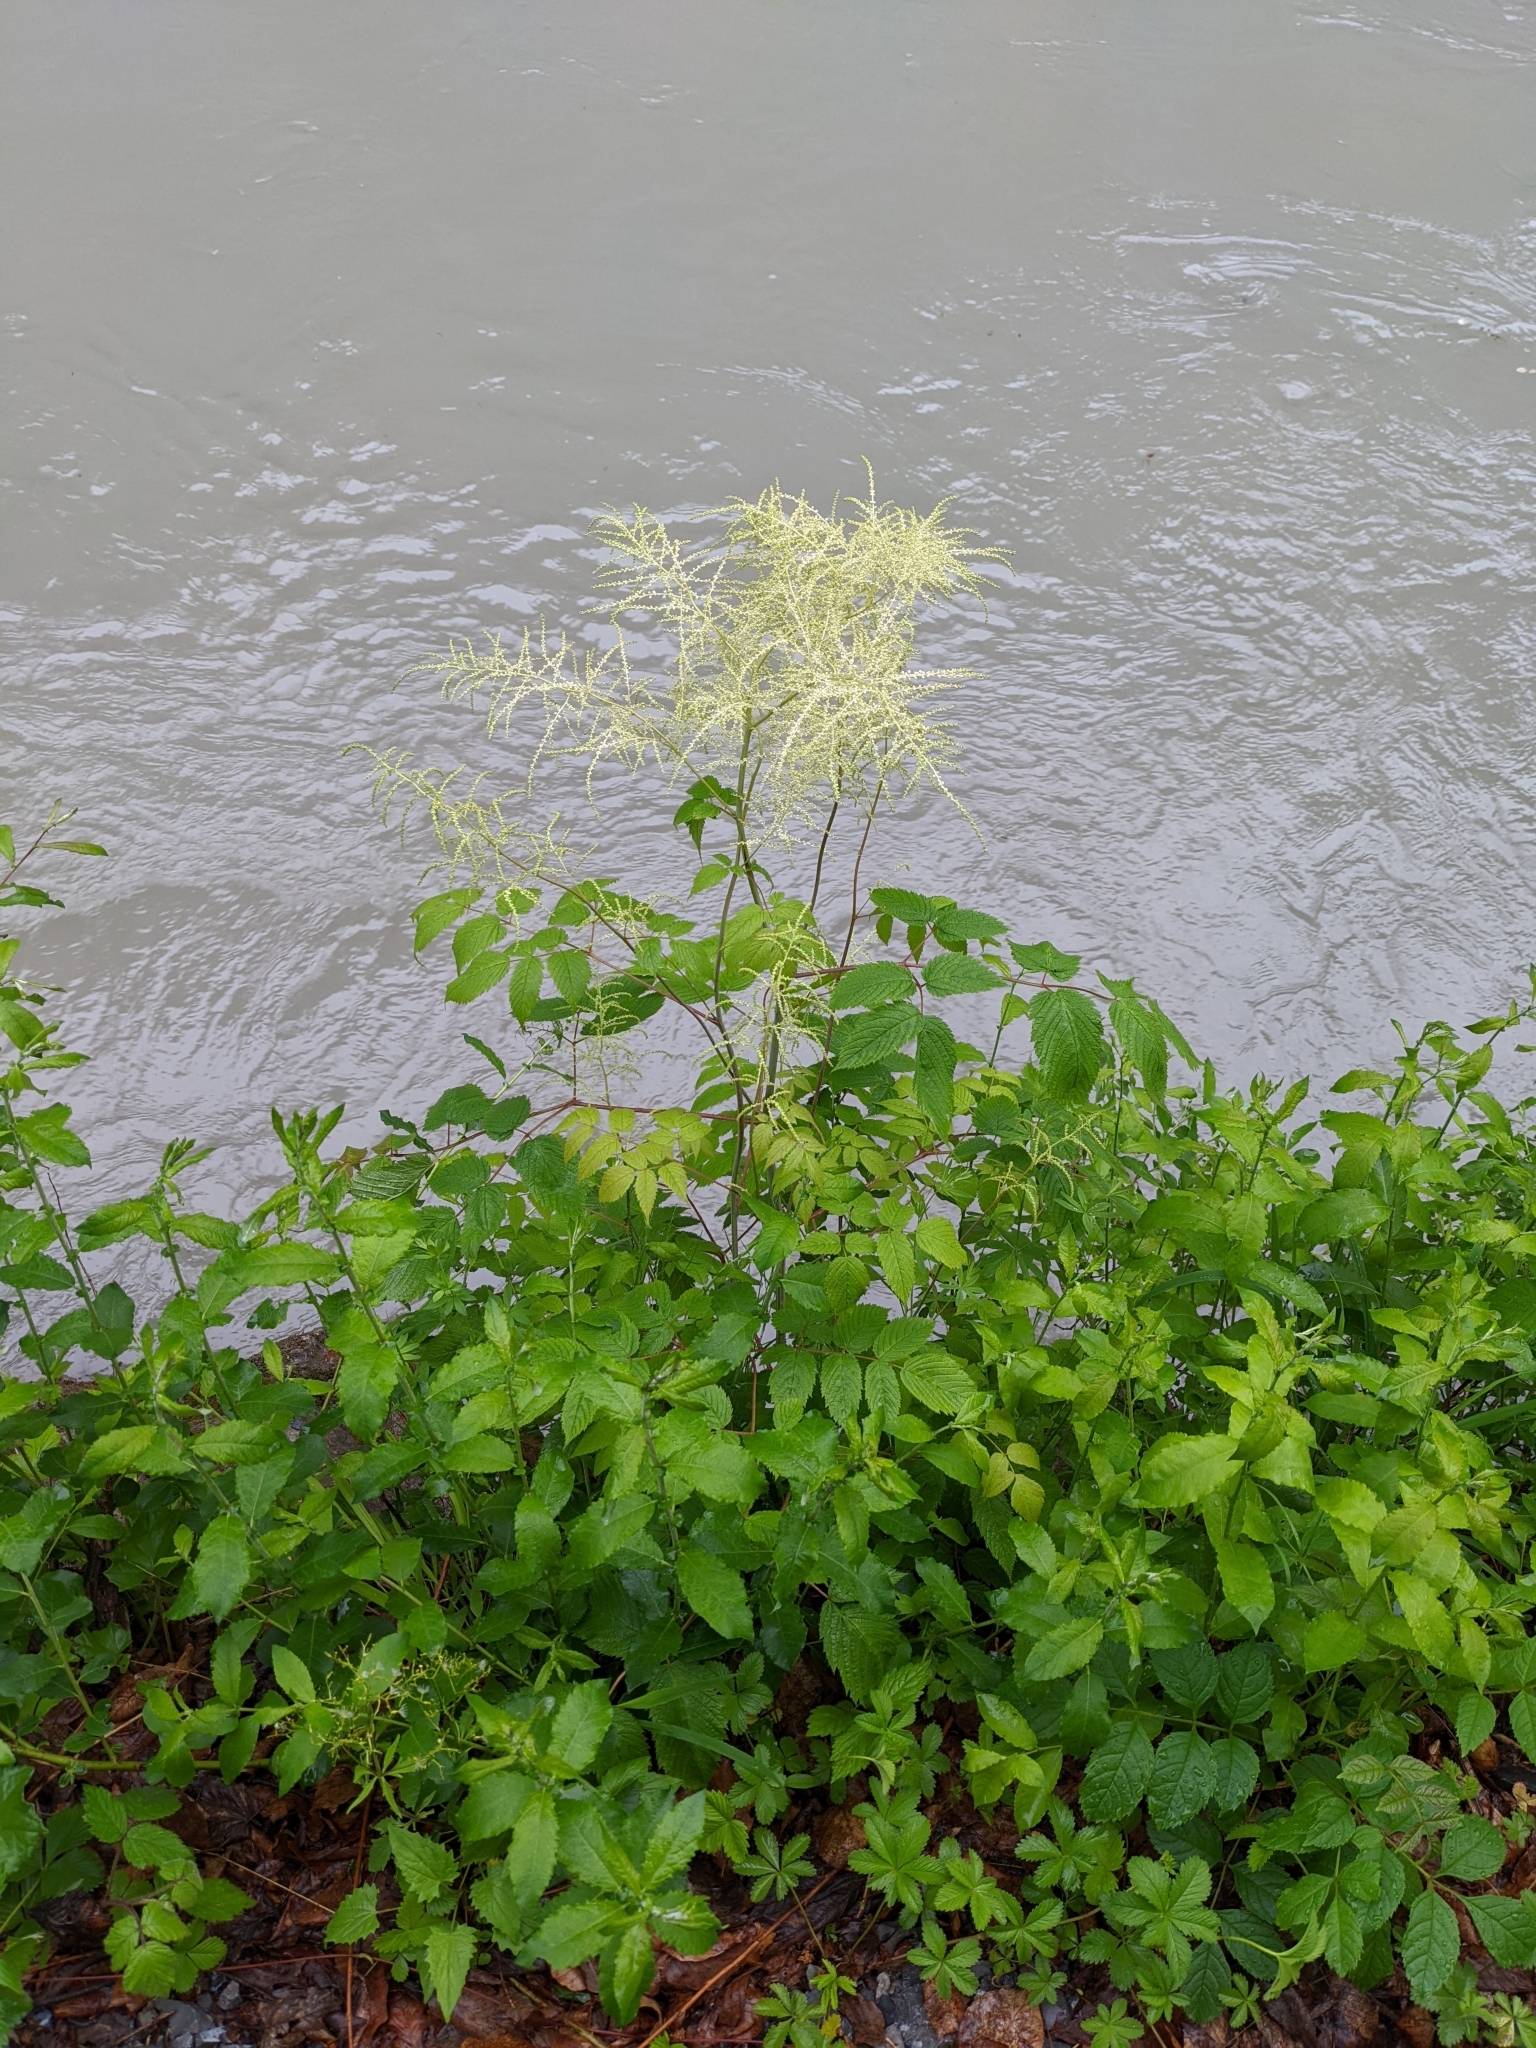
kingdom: Plantae
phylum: Tracheophyta
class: Magnoliopsida
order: Rosales
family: Rosaceae
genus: Aruncus
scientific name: Aruncus dioicus
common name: Buck's-beard
